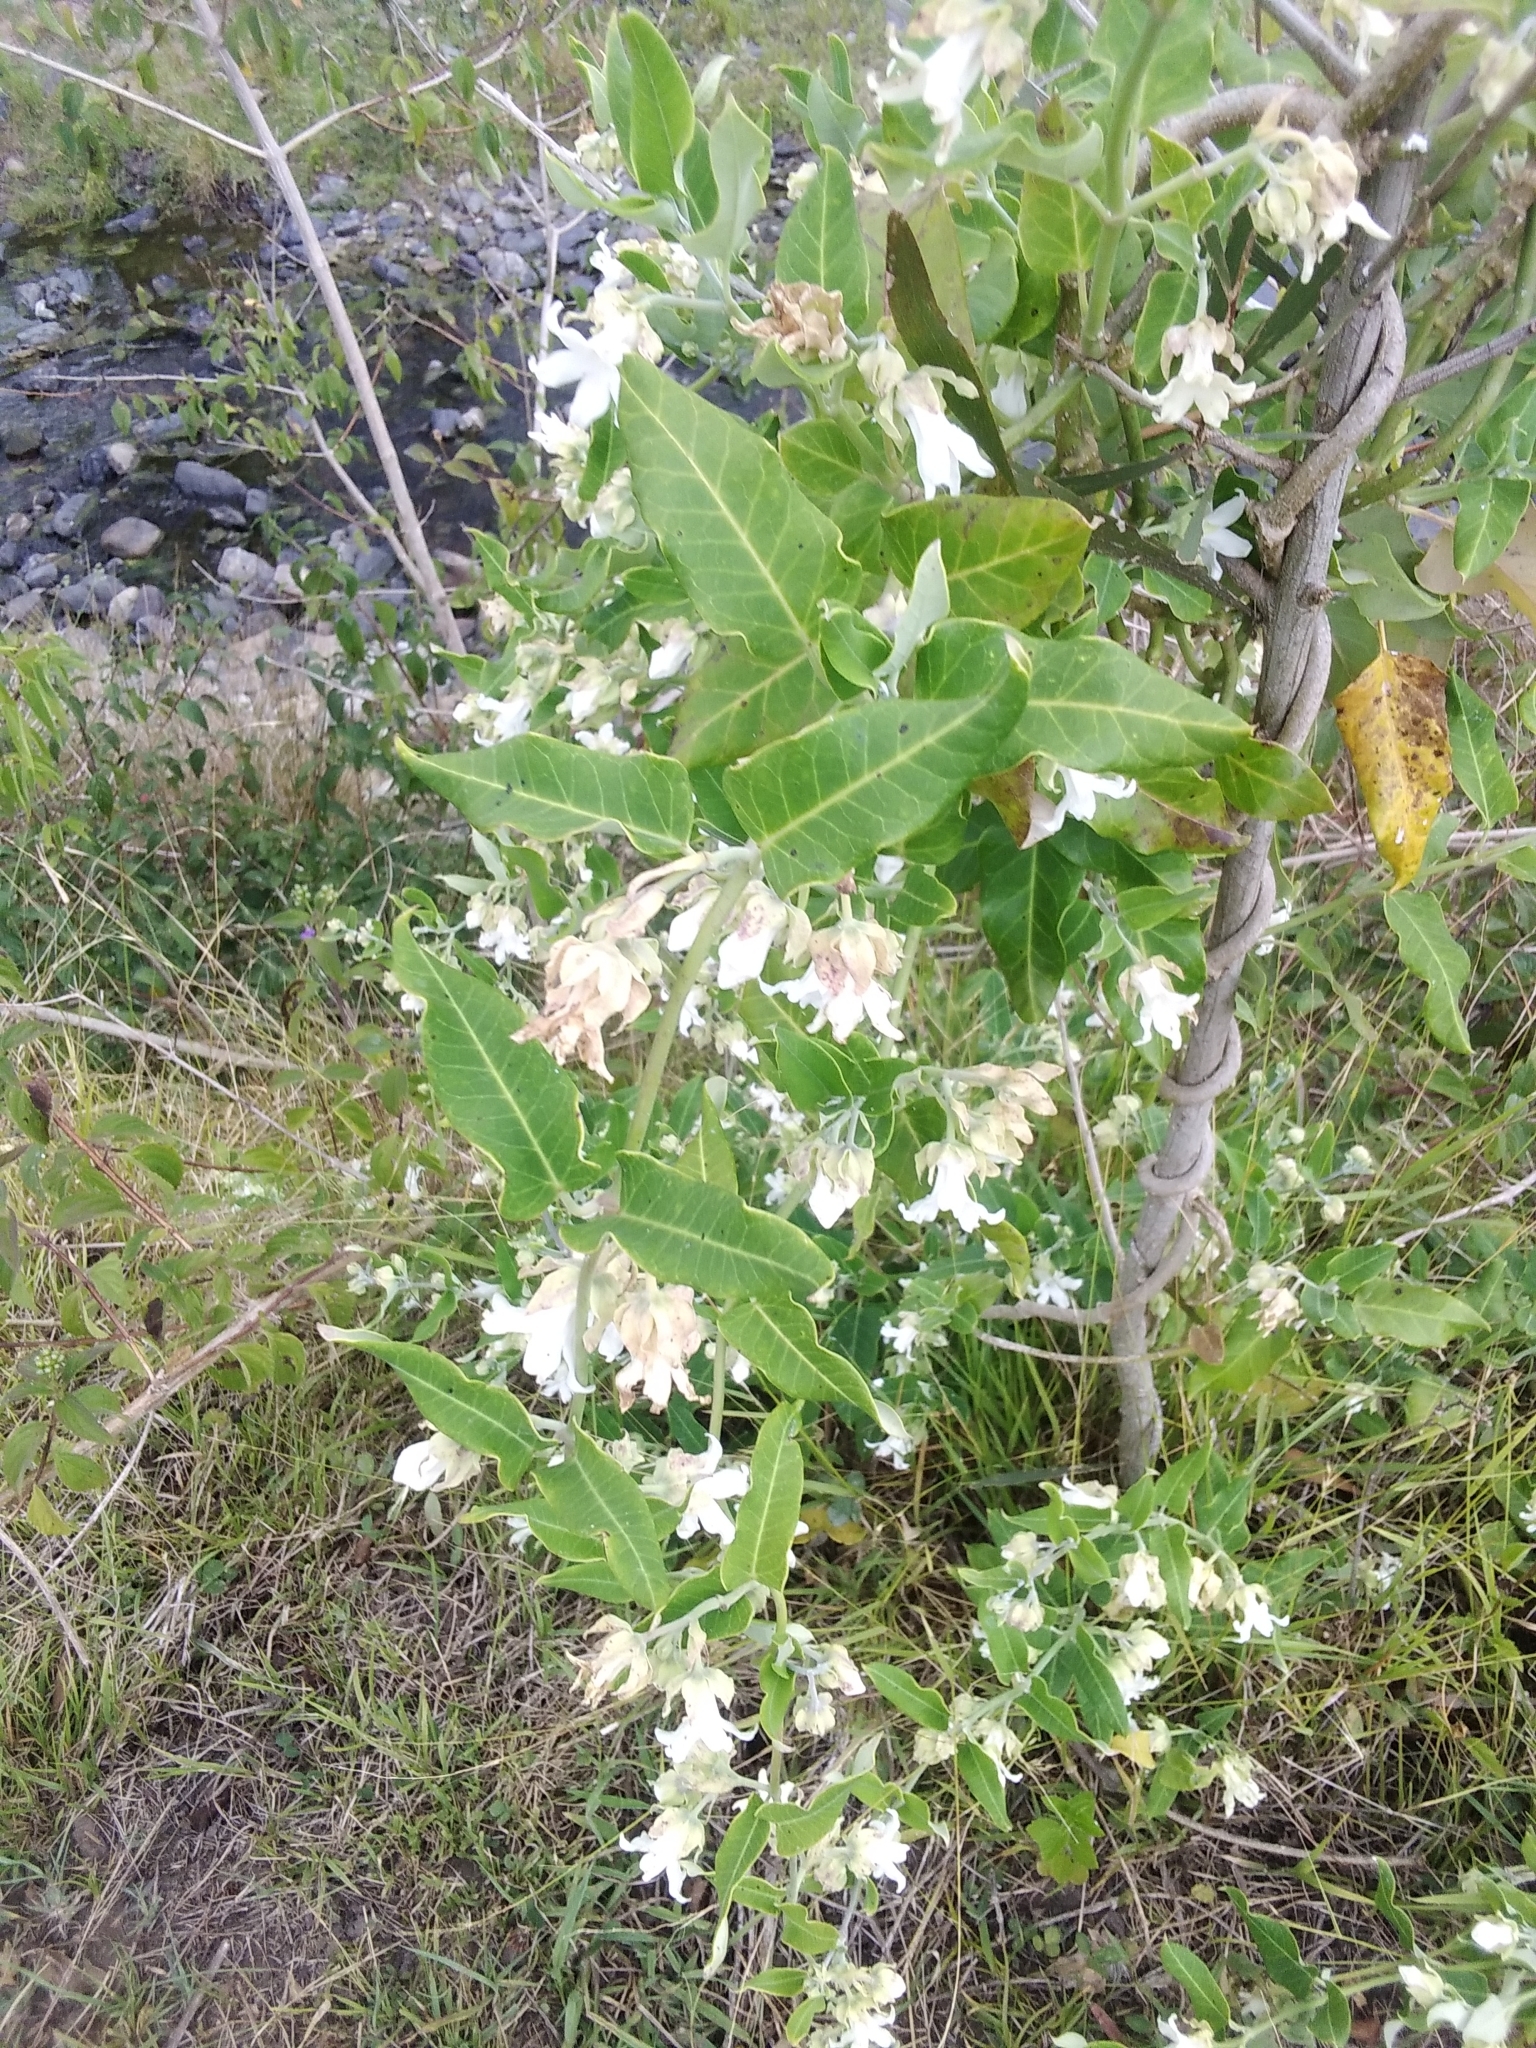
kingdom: Plantae
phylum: Tracheophyta
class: Magnoliopsida
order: Gentianales
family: Apocynaceae
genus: Araujia
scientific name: Araujia sericifera
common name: White bladderflower
